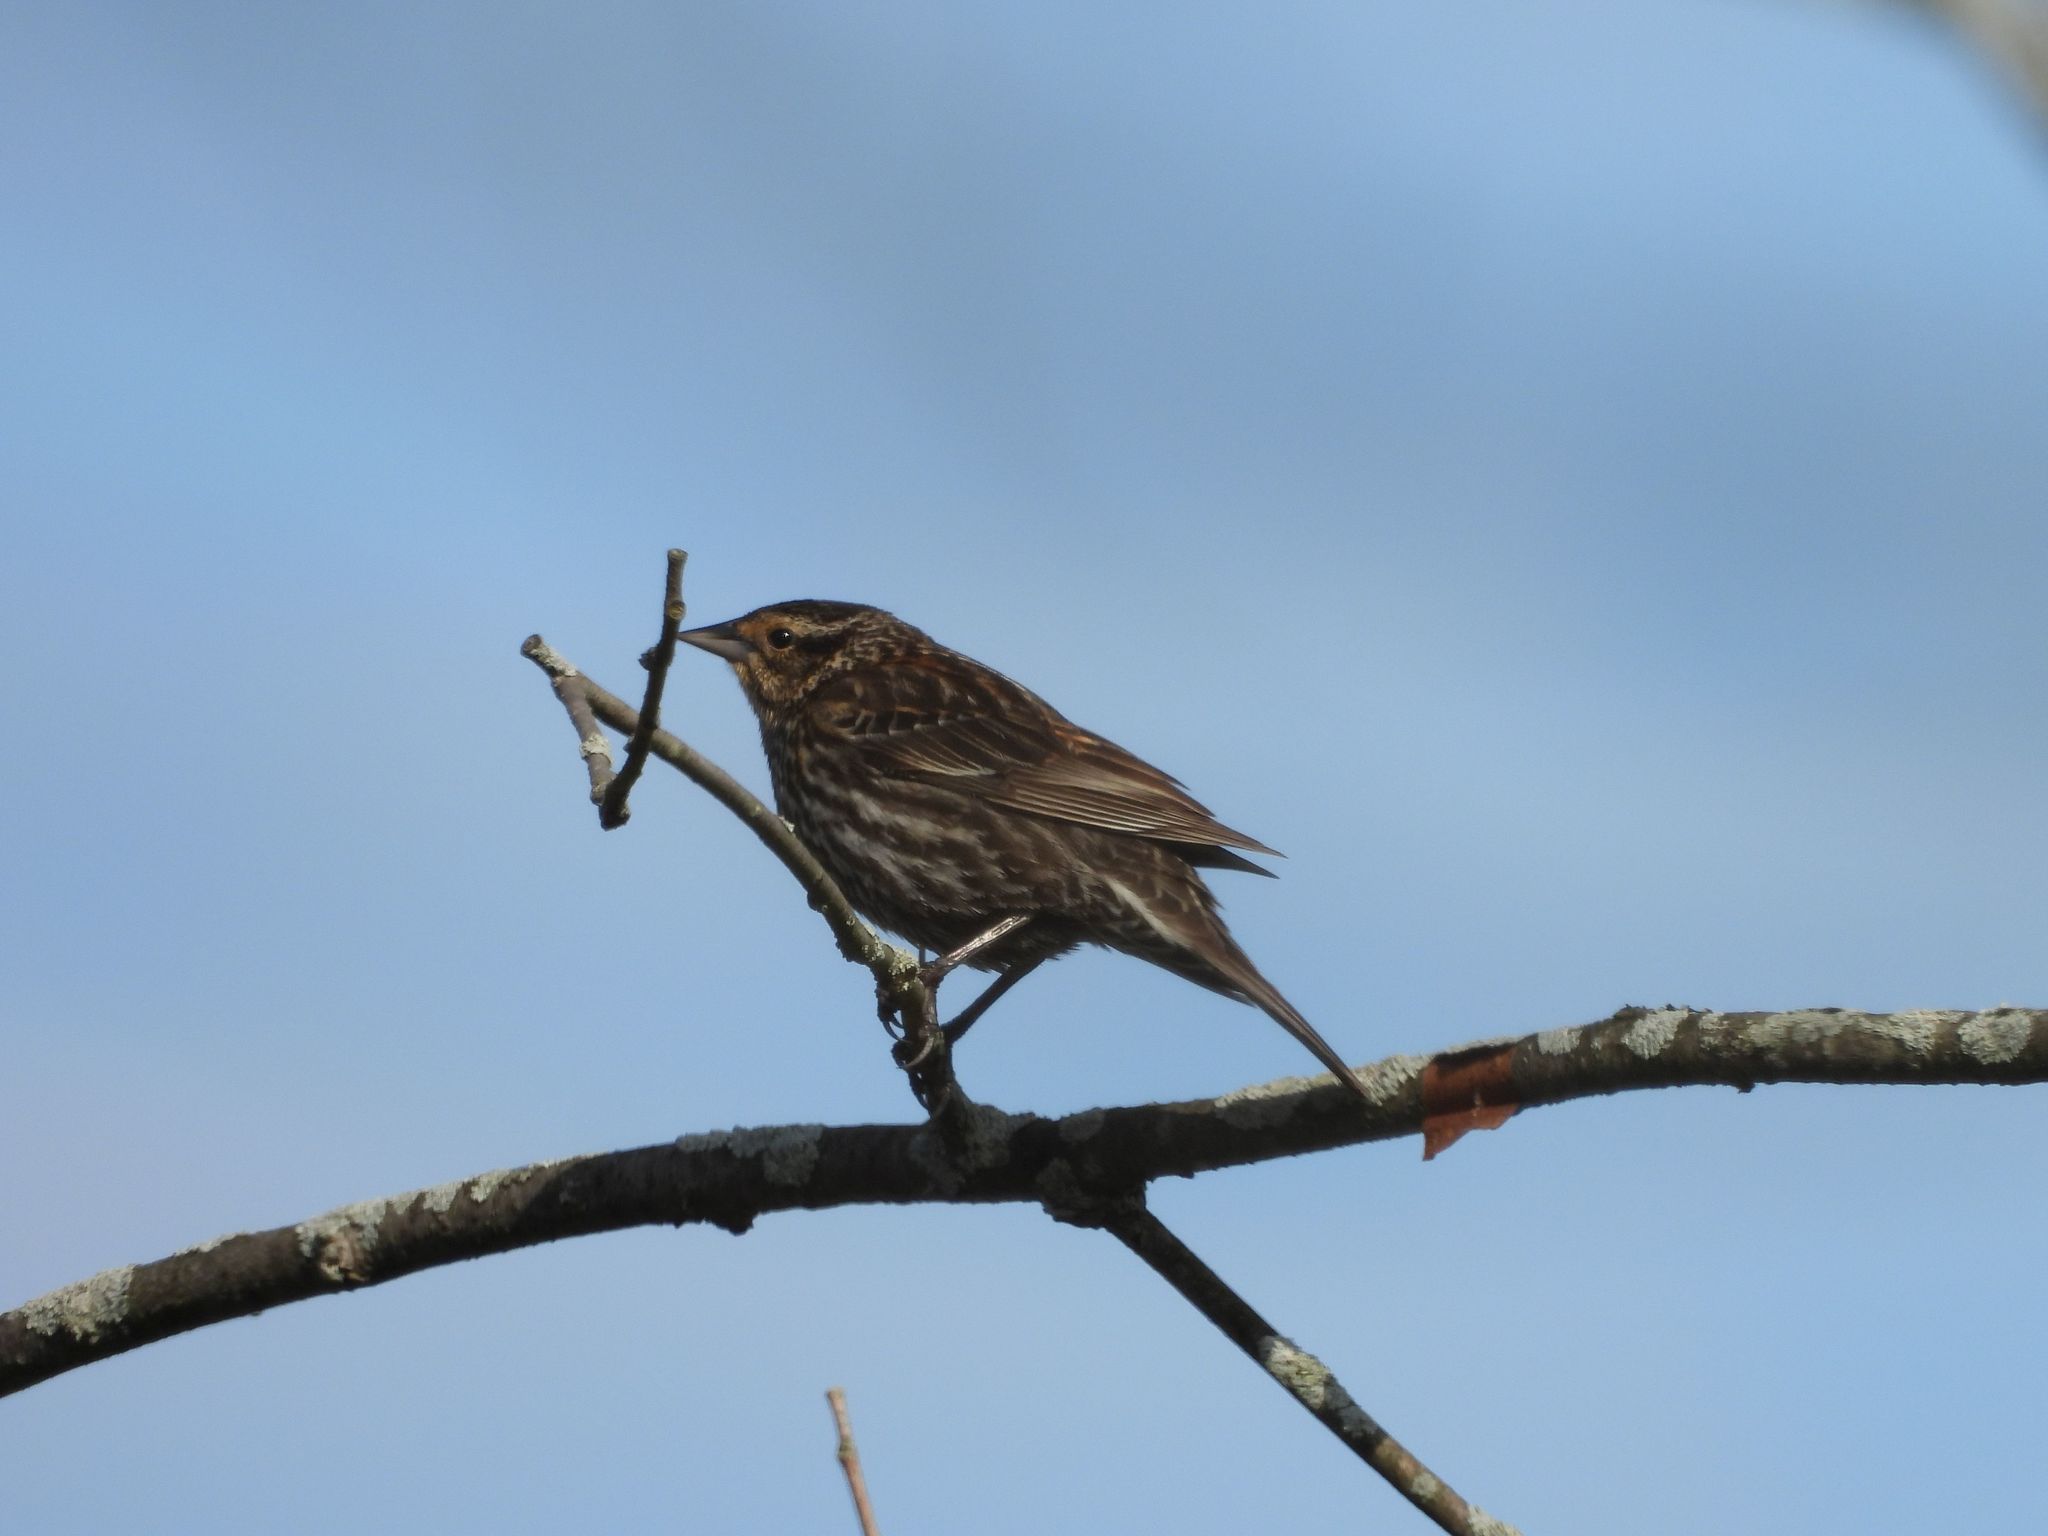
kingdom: Animalia
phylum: Chordata
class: Aves
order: Passeriformes
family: Icteridae
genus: Agelaius
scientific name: Agelaius phoeniceus
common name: Red-winged blackbird
